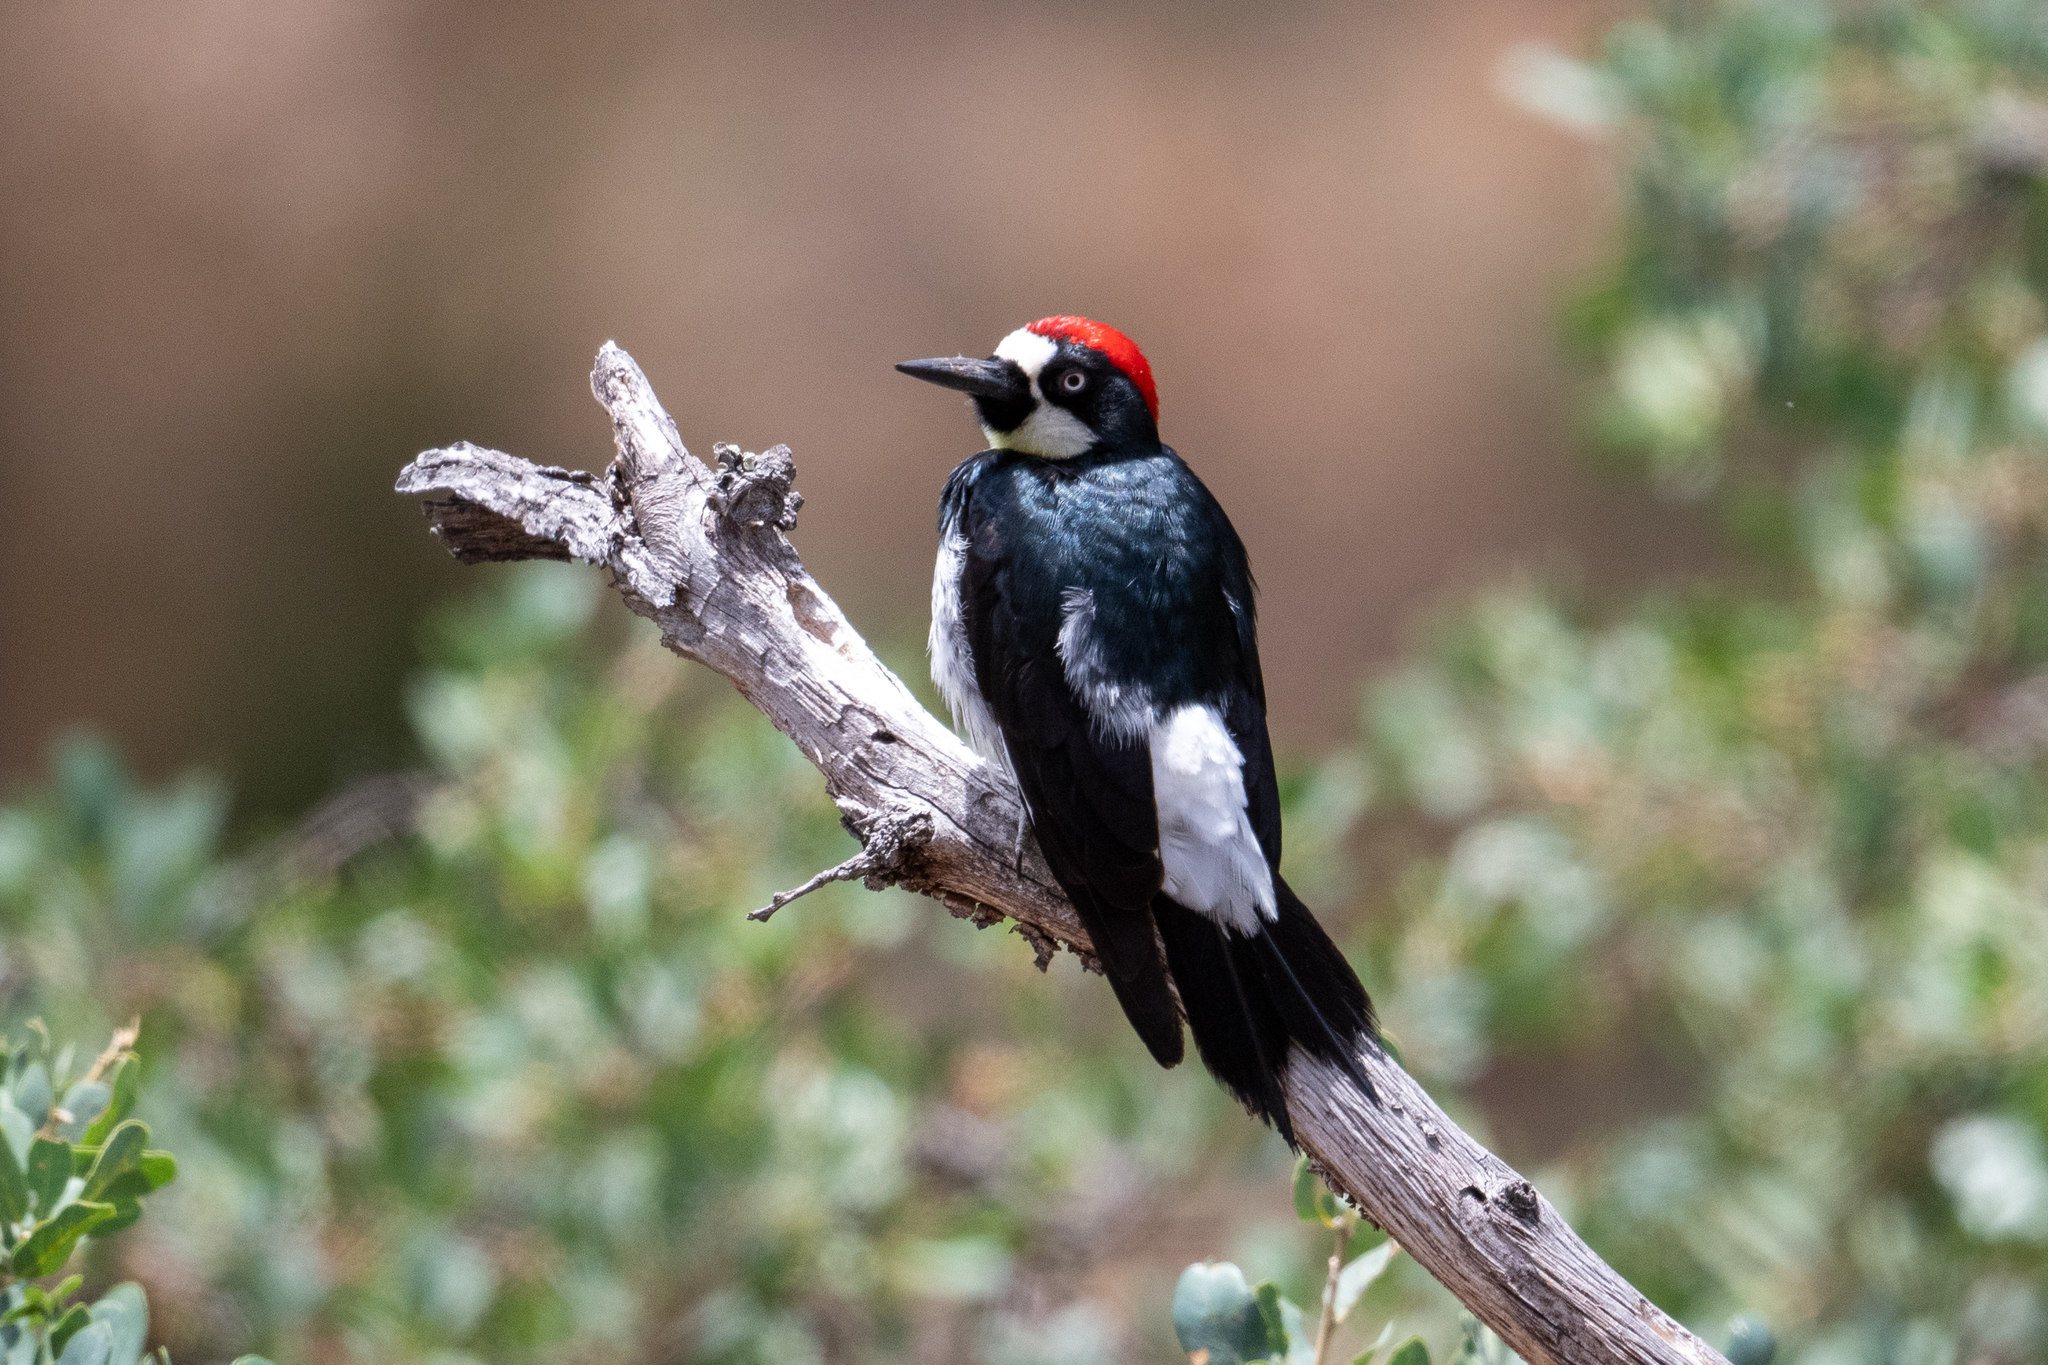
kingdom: Animalia
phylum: Chordata
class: Aves
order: Piciformes
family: Picidae
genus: Melanerpes
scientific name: Melanerpes formicivorus
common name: Acorn woodpecker
